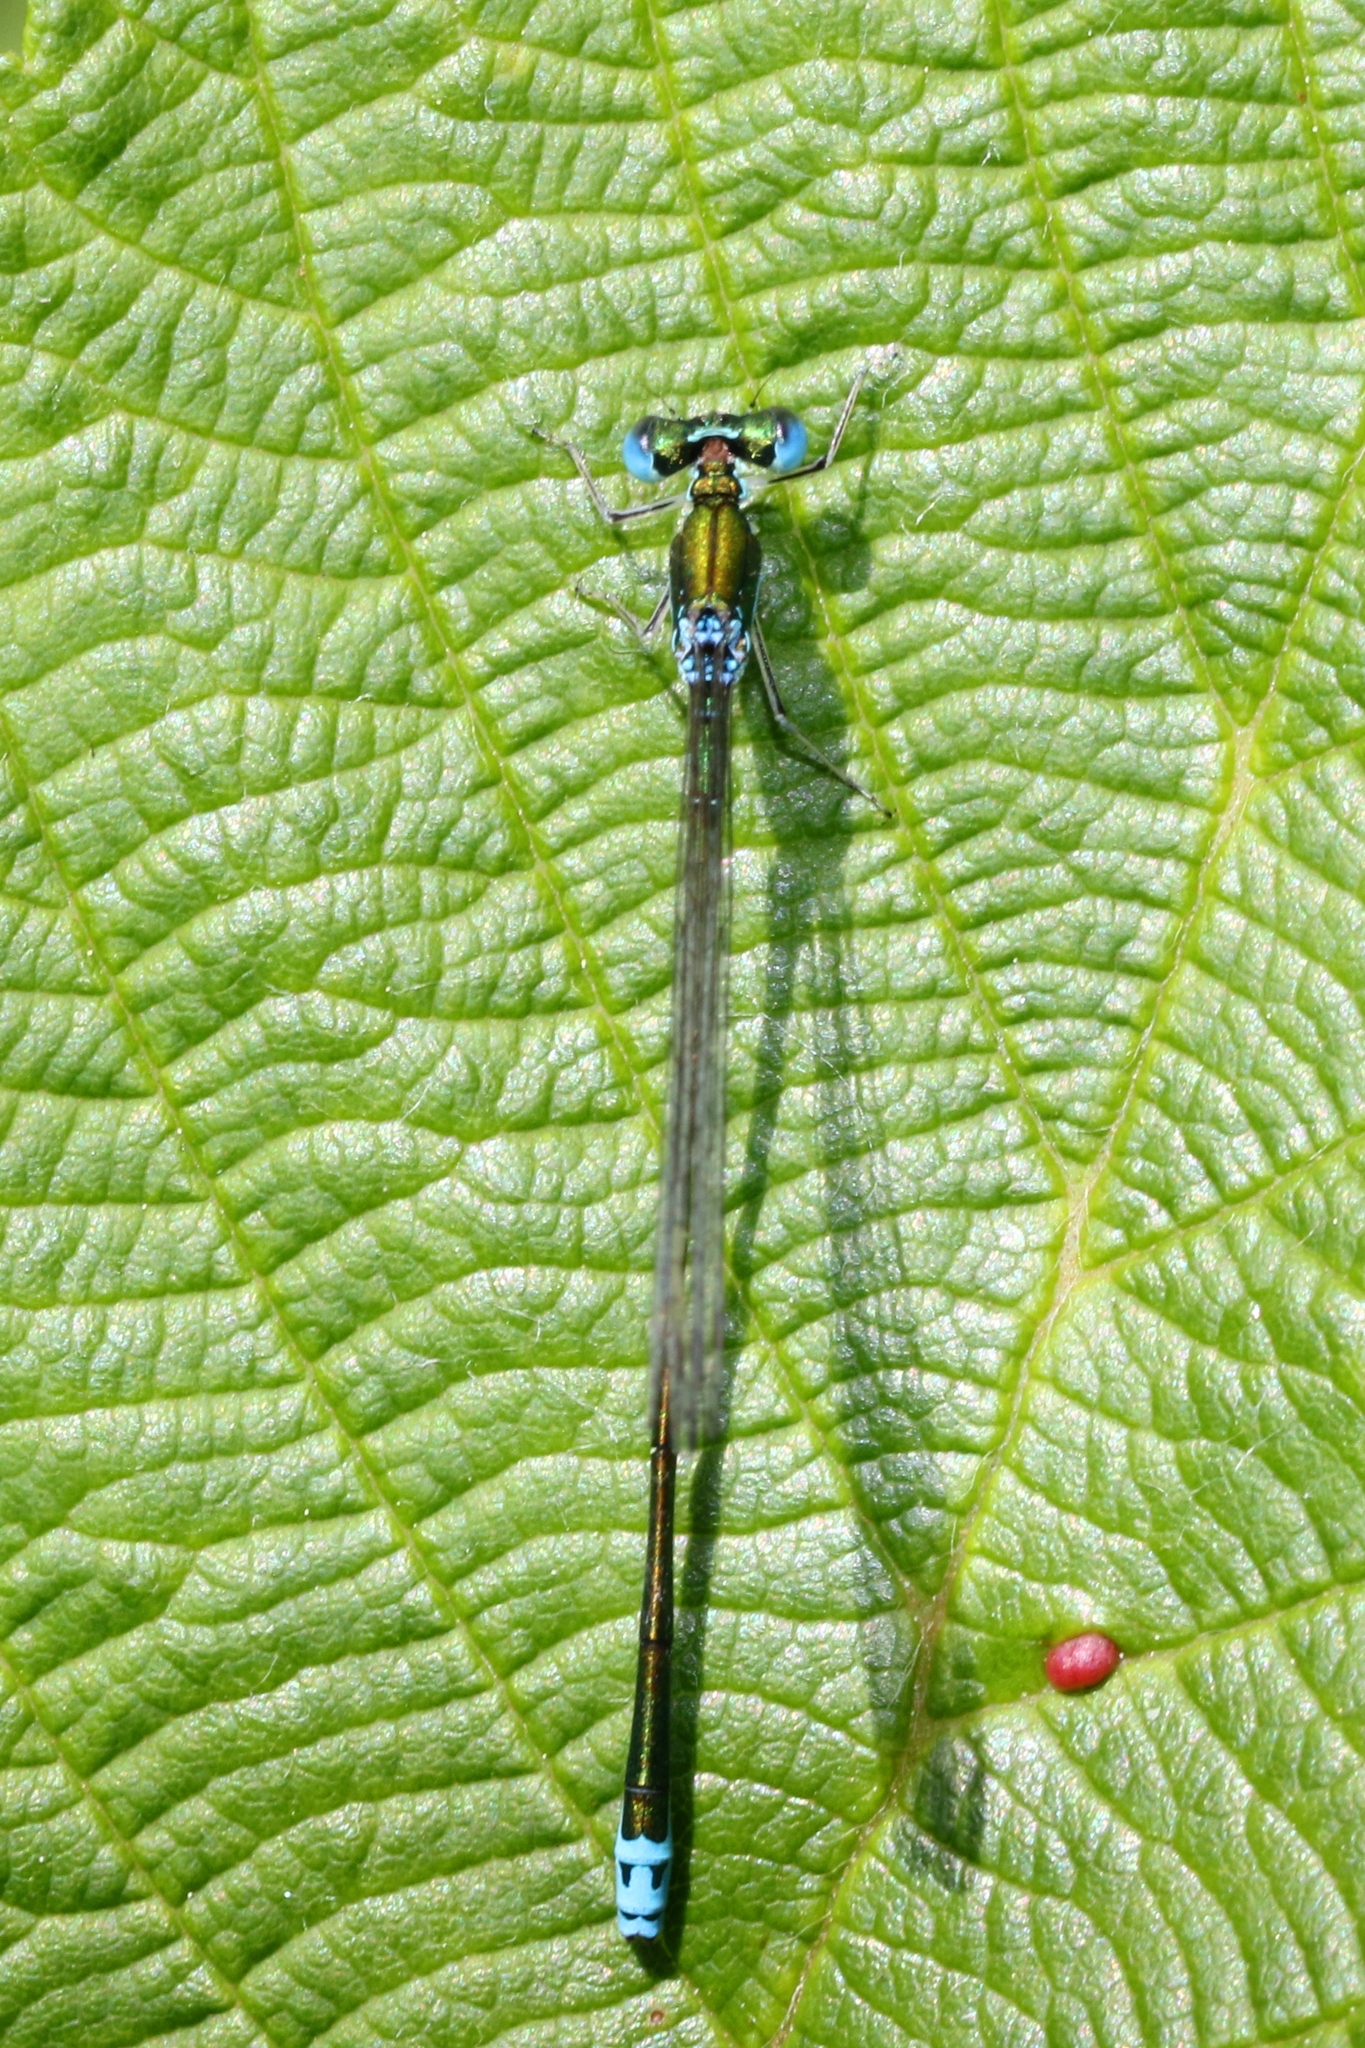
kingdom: Animalia
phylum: Arthropoda
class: Insecta
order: Odonata
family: Coenagrionidae
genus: Nehalennia
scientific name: Nehalennia irene
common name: Sedge sprite
